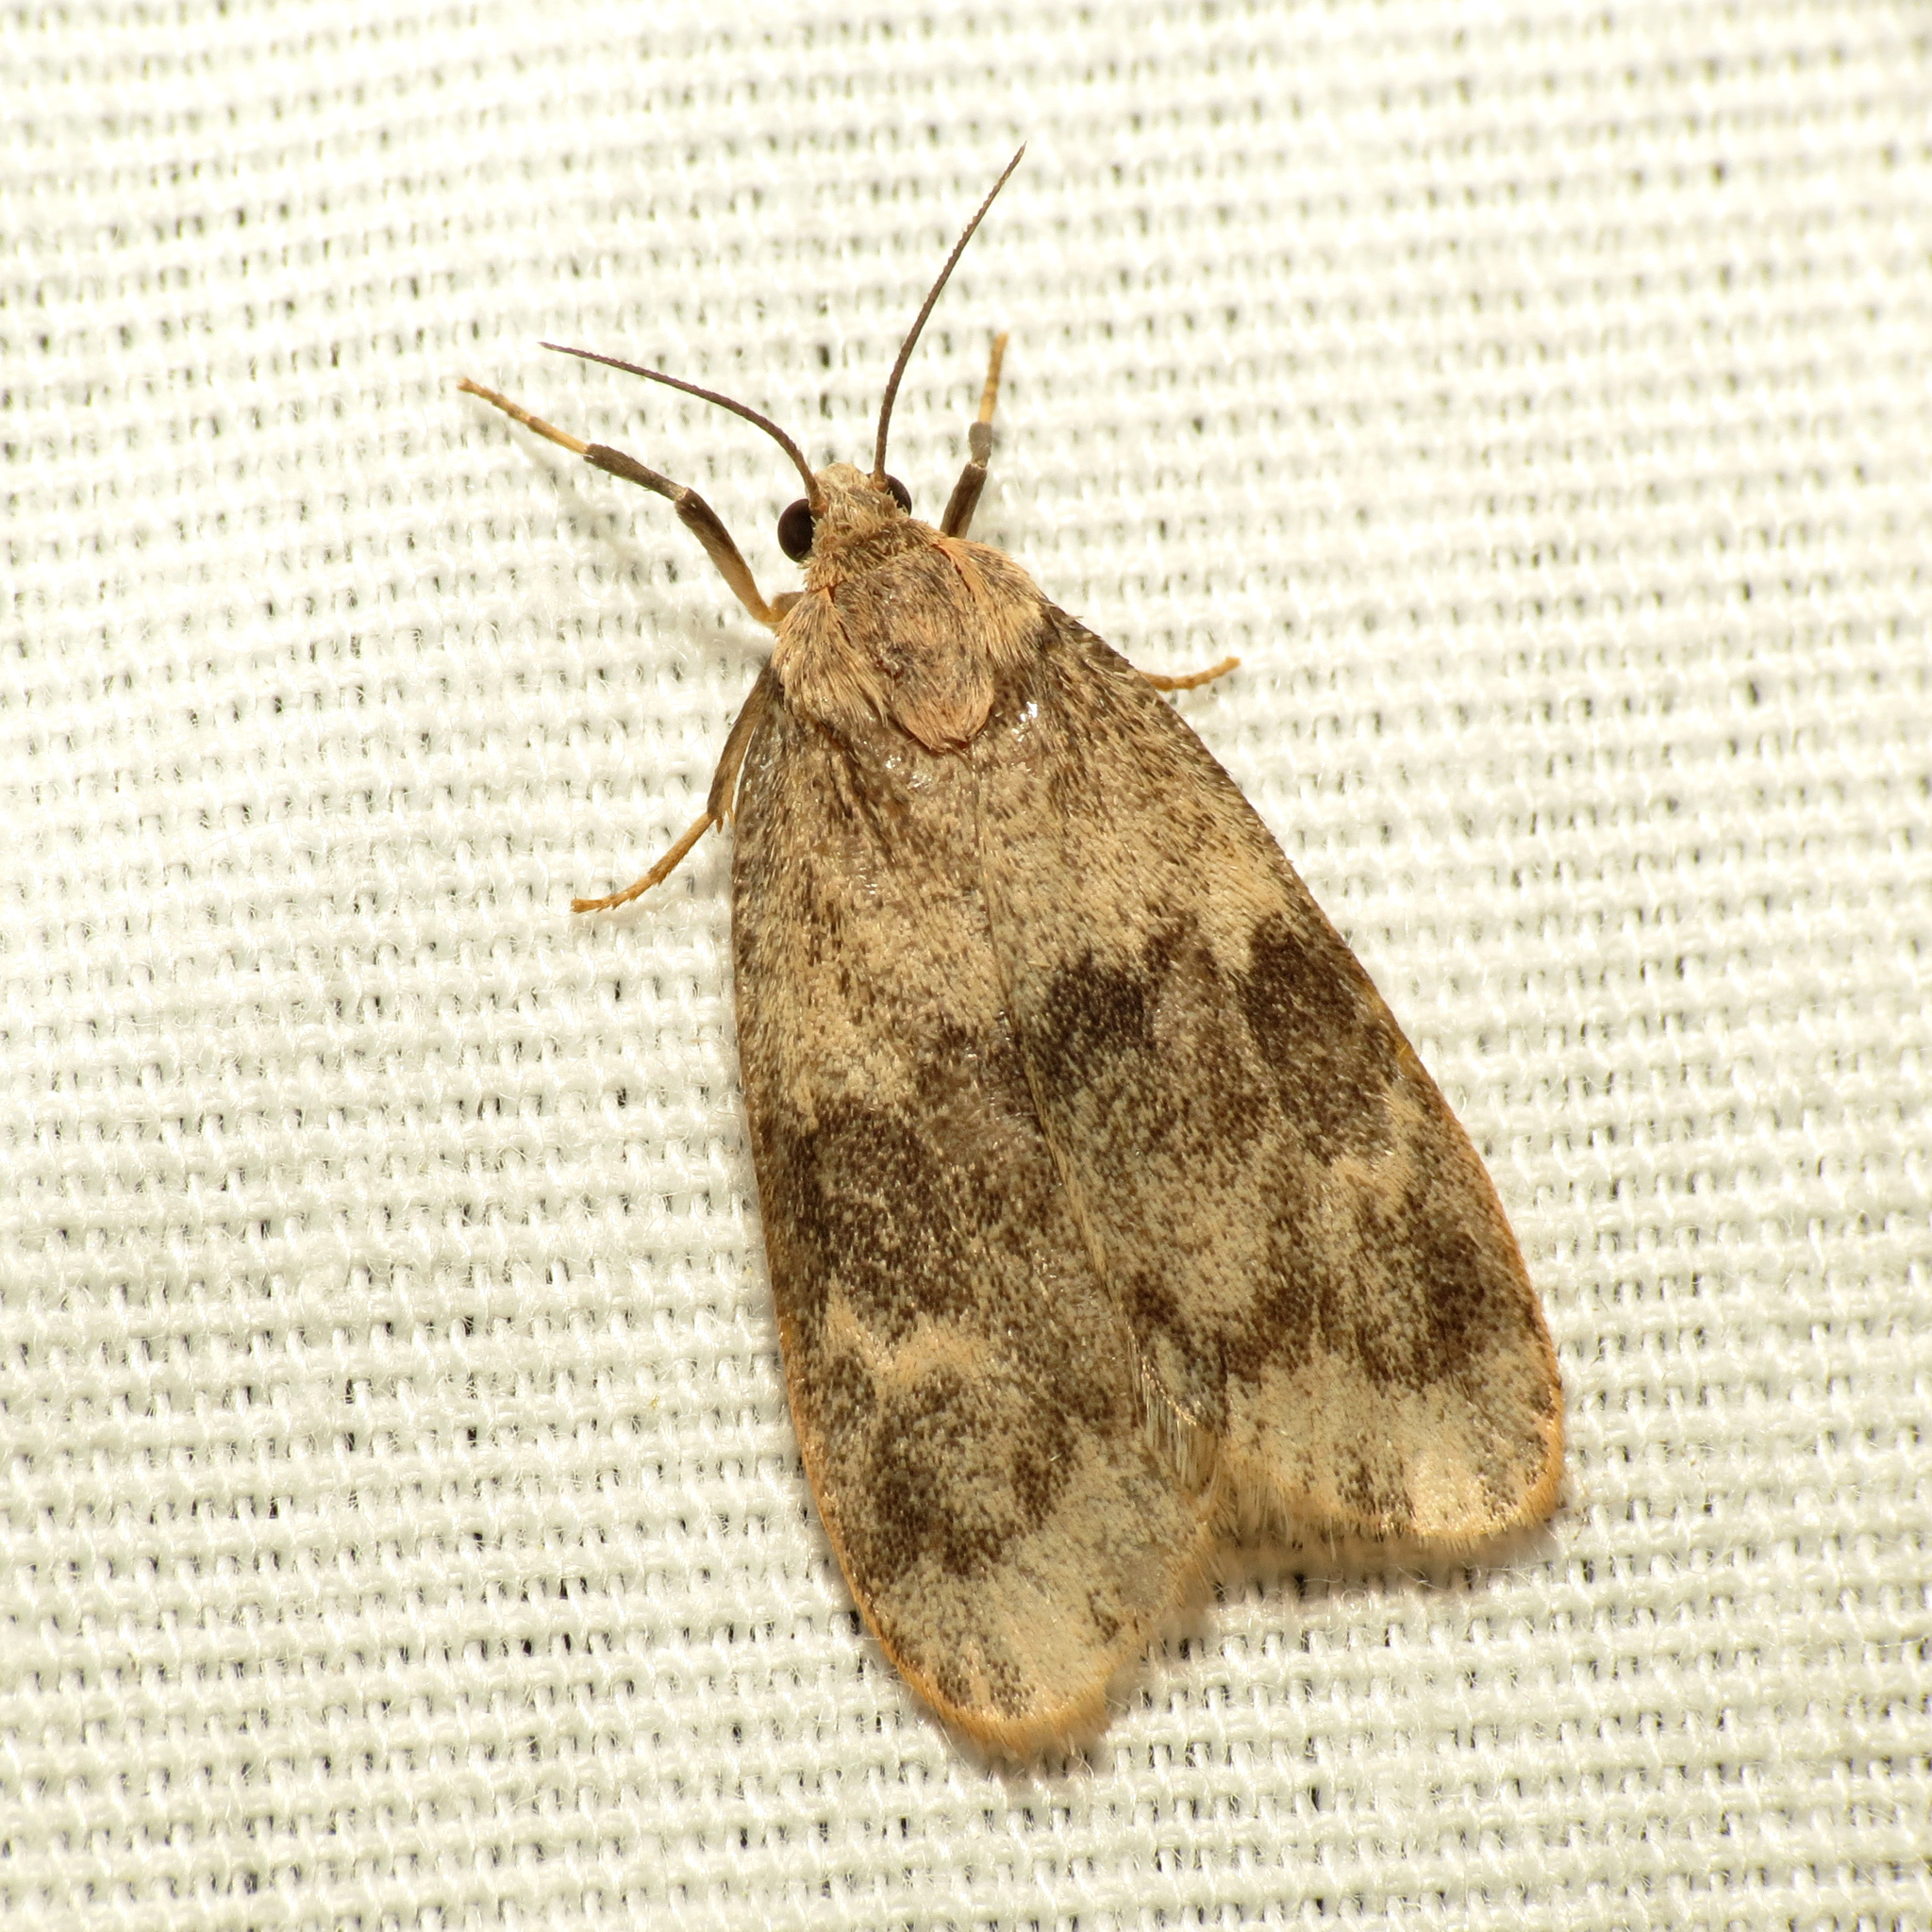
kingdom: Animalia
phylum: Arthropoda
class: Insecta
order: Lepidoptera
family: Erebidae
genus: Bruceia
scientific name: Bruceia hubbardi
